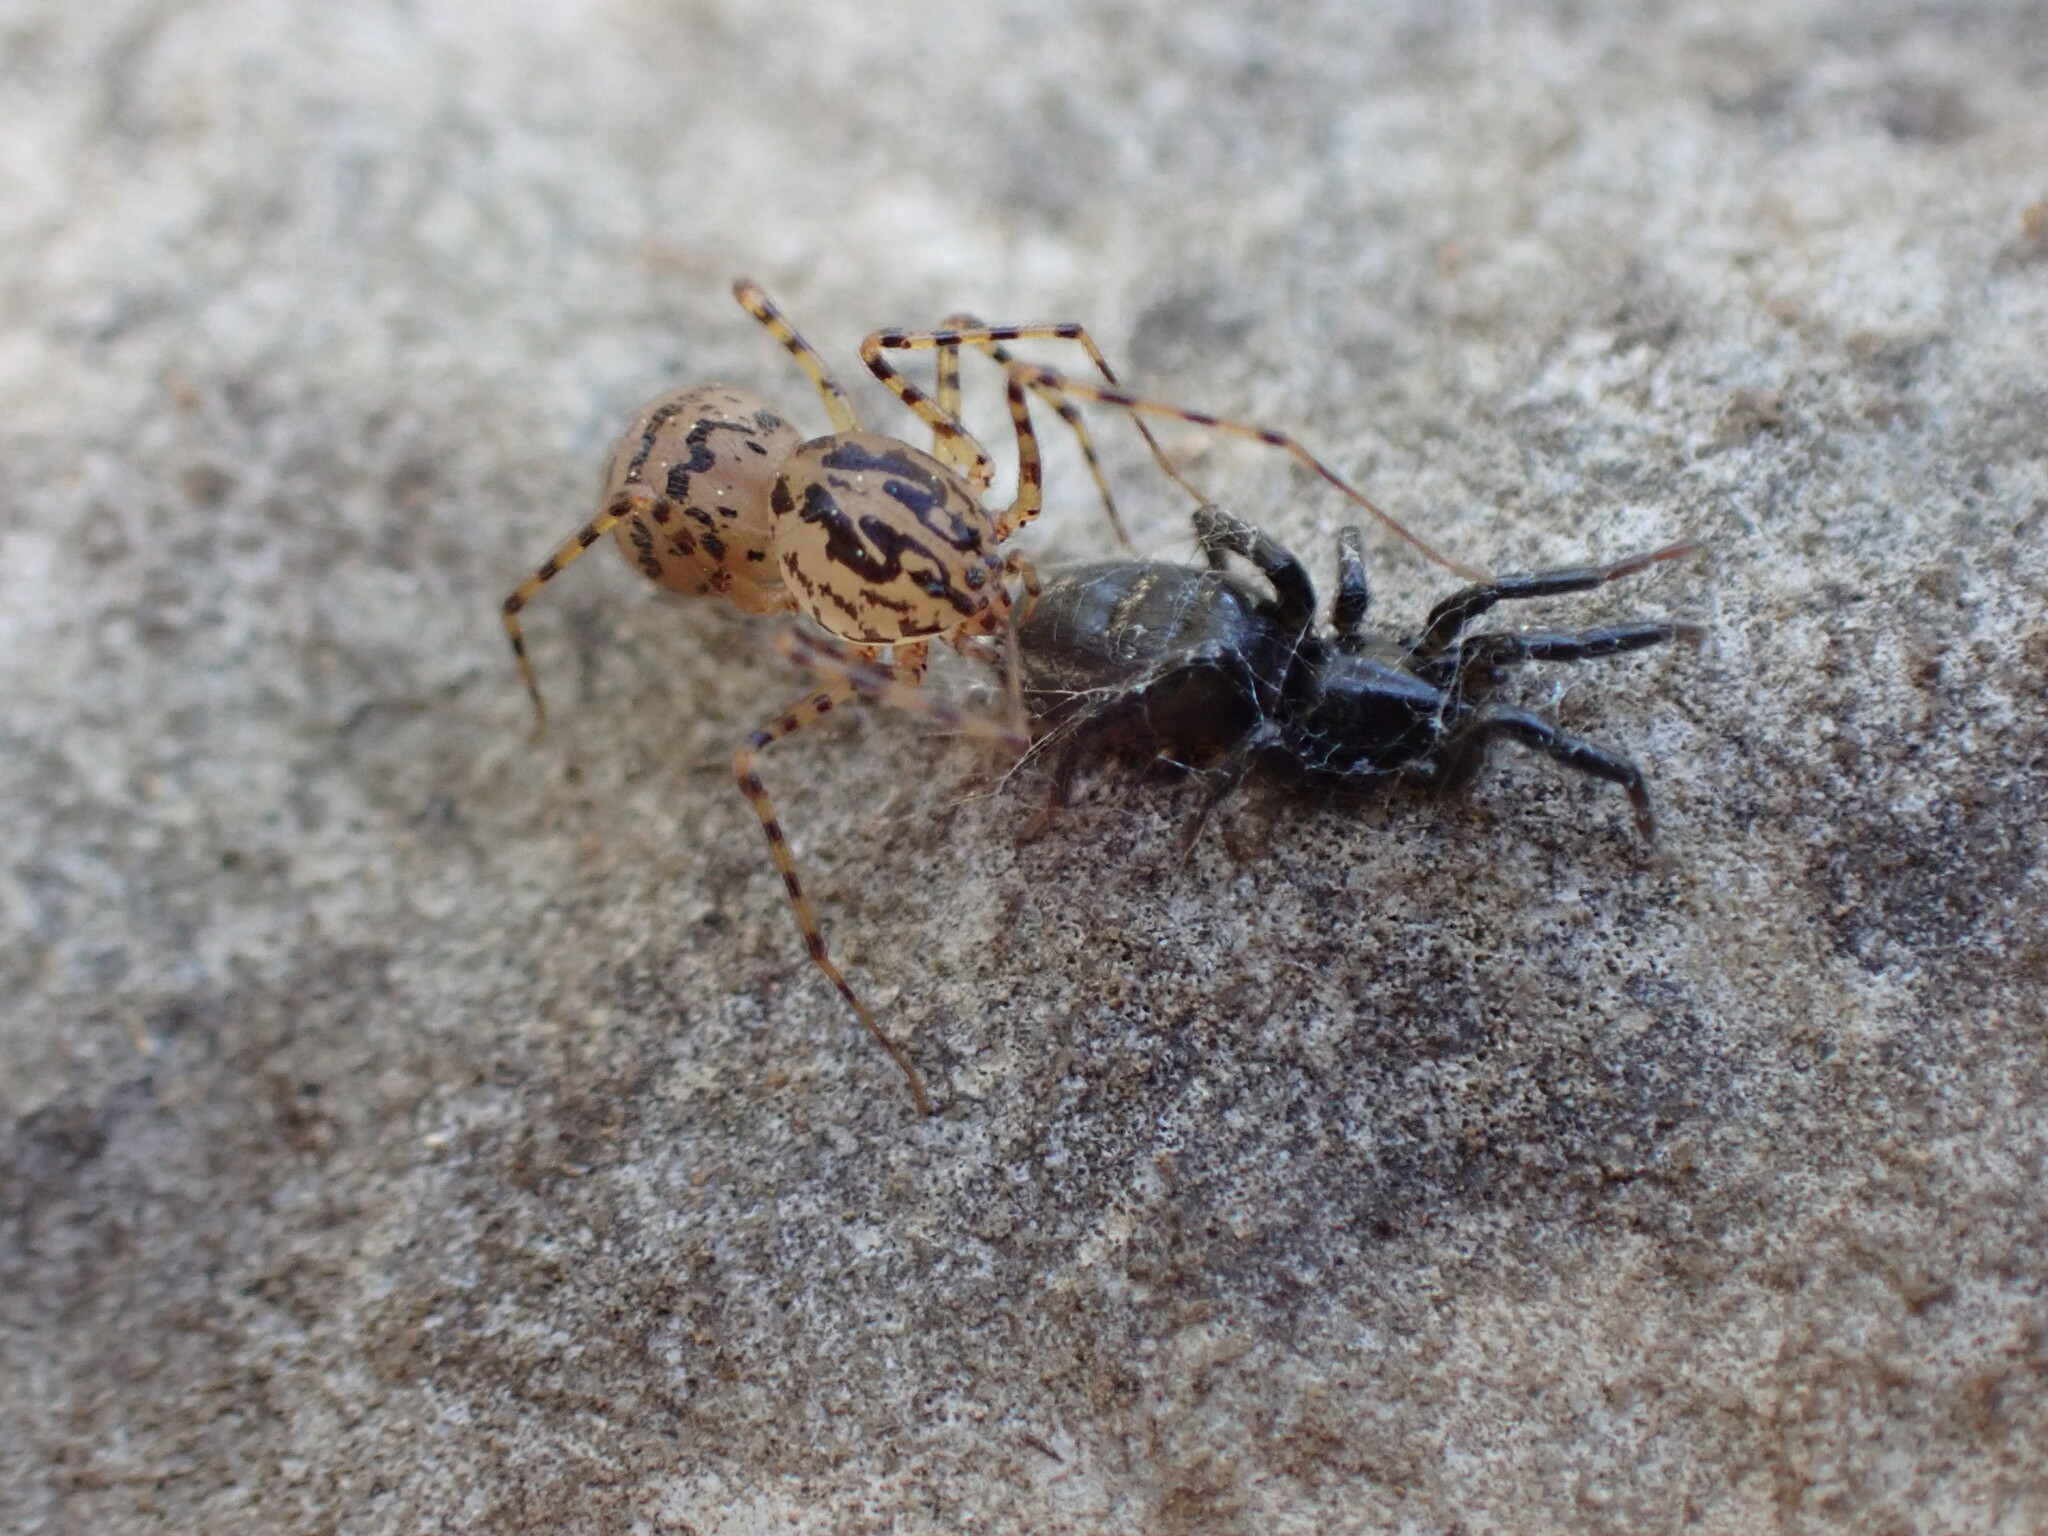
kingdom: Animalia
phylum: Arthropoda
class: Arachnida
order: Araneae
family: Scytodidae
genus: Scytodes
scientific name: Scytodes thoracica
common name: Spitting spider
